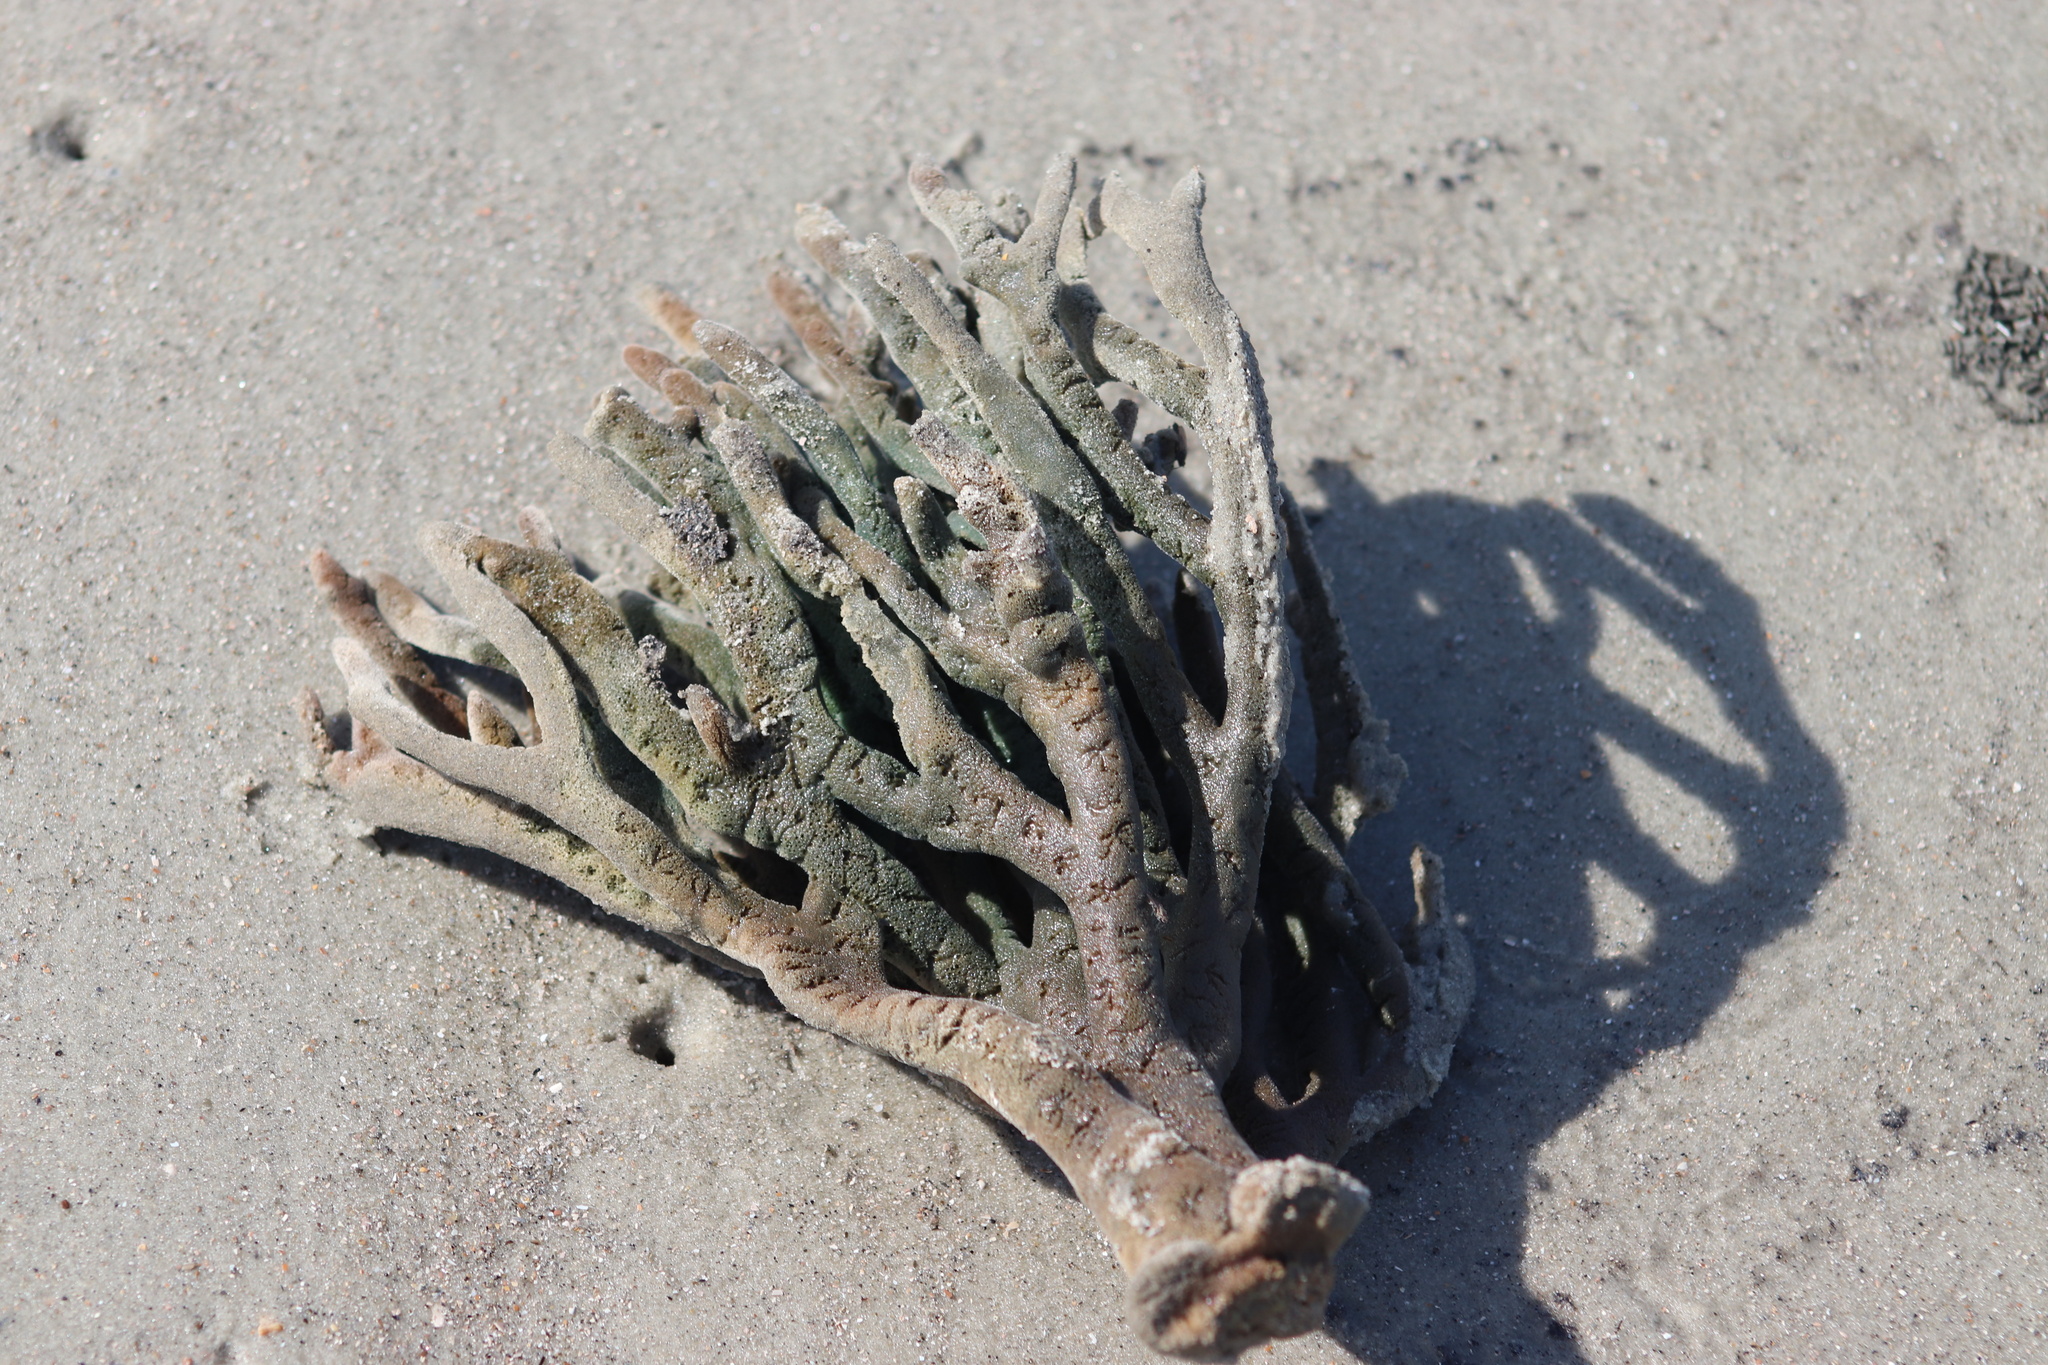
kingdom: Animalia
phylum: Porifera
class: Demospongiae
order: Haplosclerida
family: Chalinidae
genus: Haliclona
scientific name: Haliclona oculata
